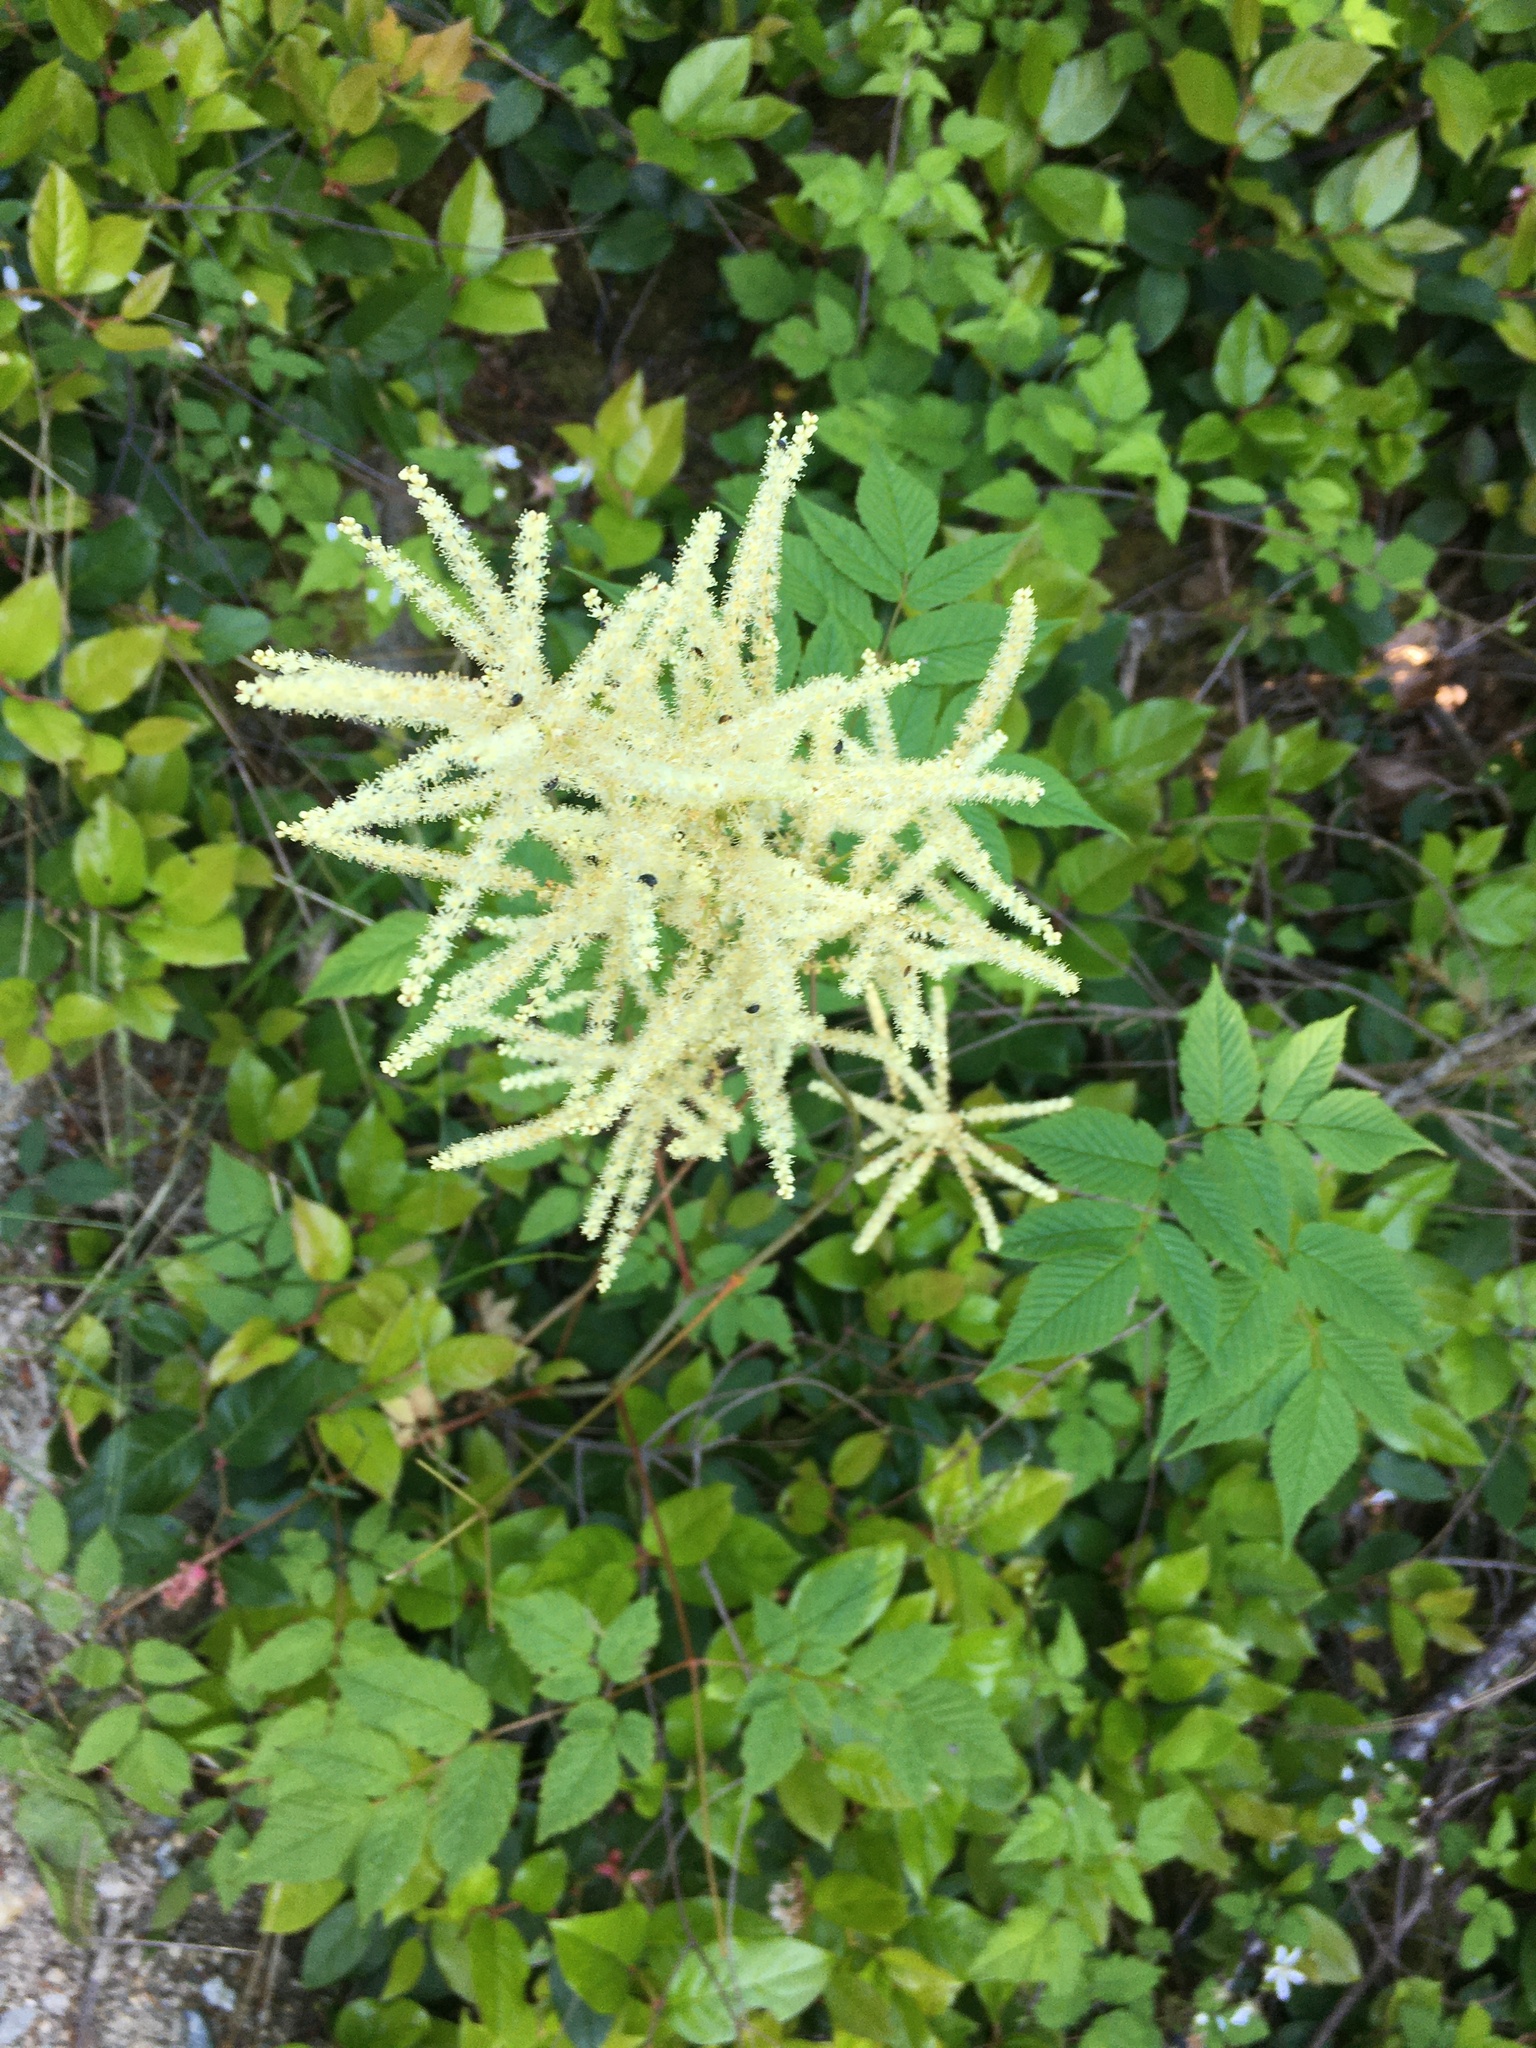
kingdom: Plantae
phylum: Tracheophyta
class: Magnoliopsida
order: Rosales
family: Rosaceae
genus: Aruncus
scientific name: Aruncus dioicus
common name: Buck's-beard
